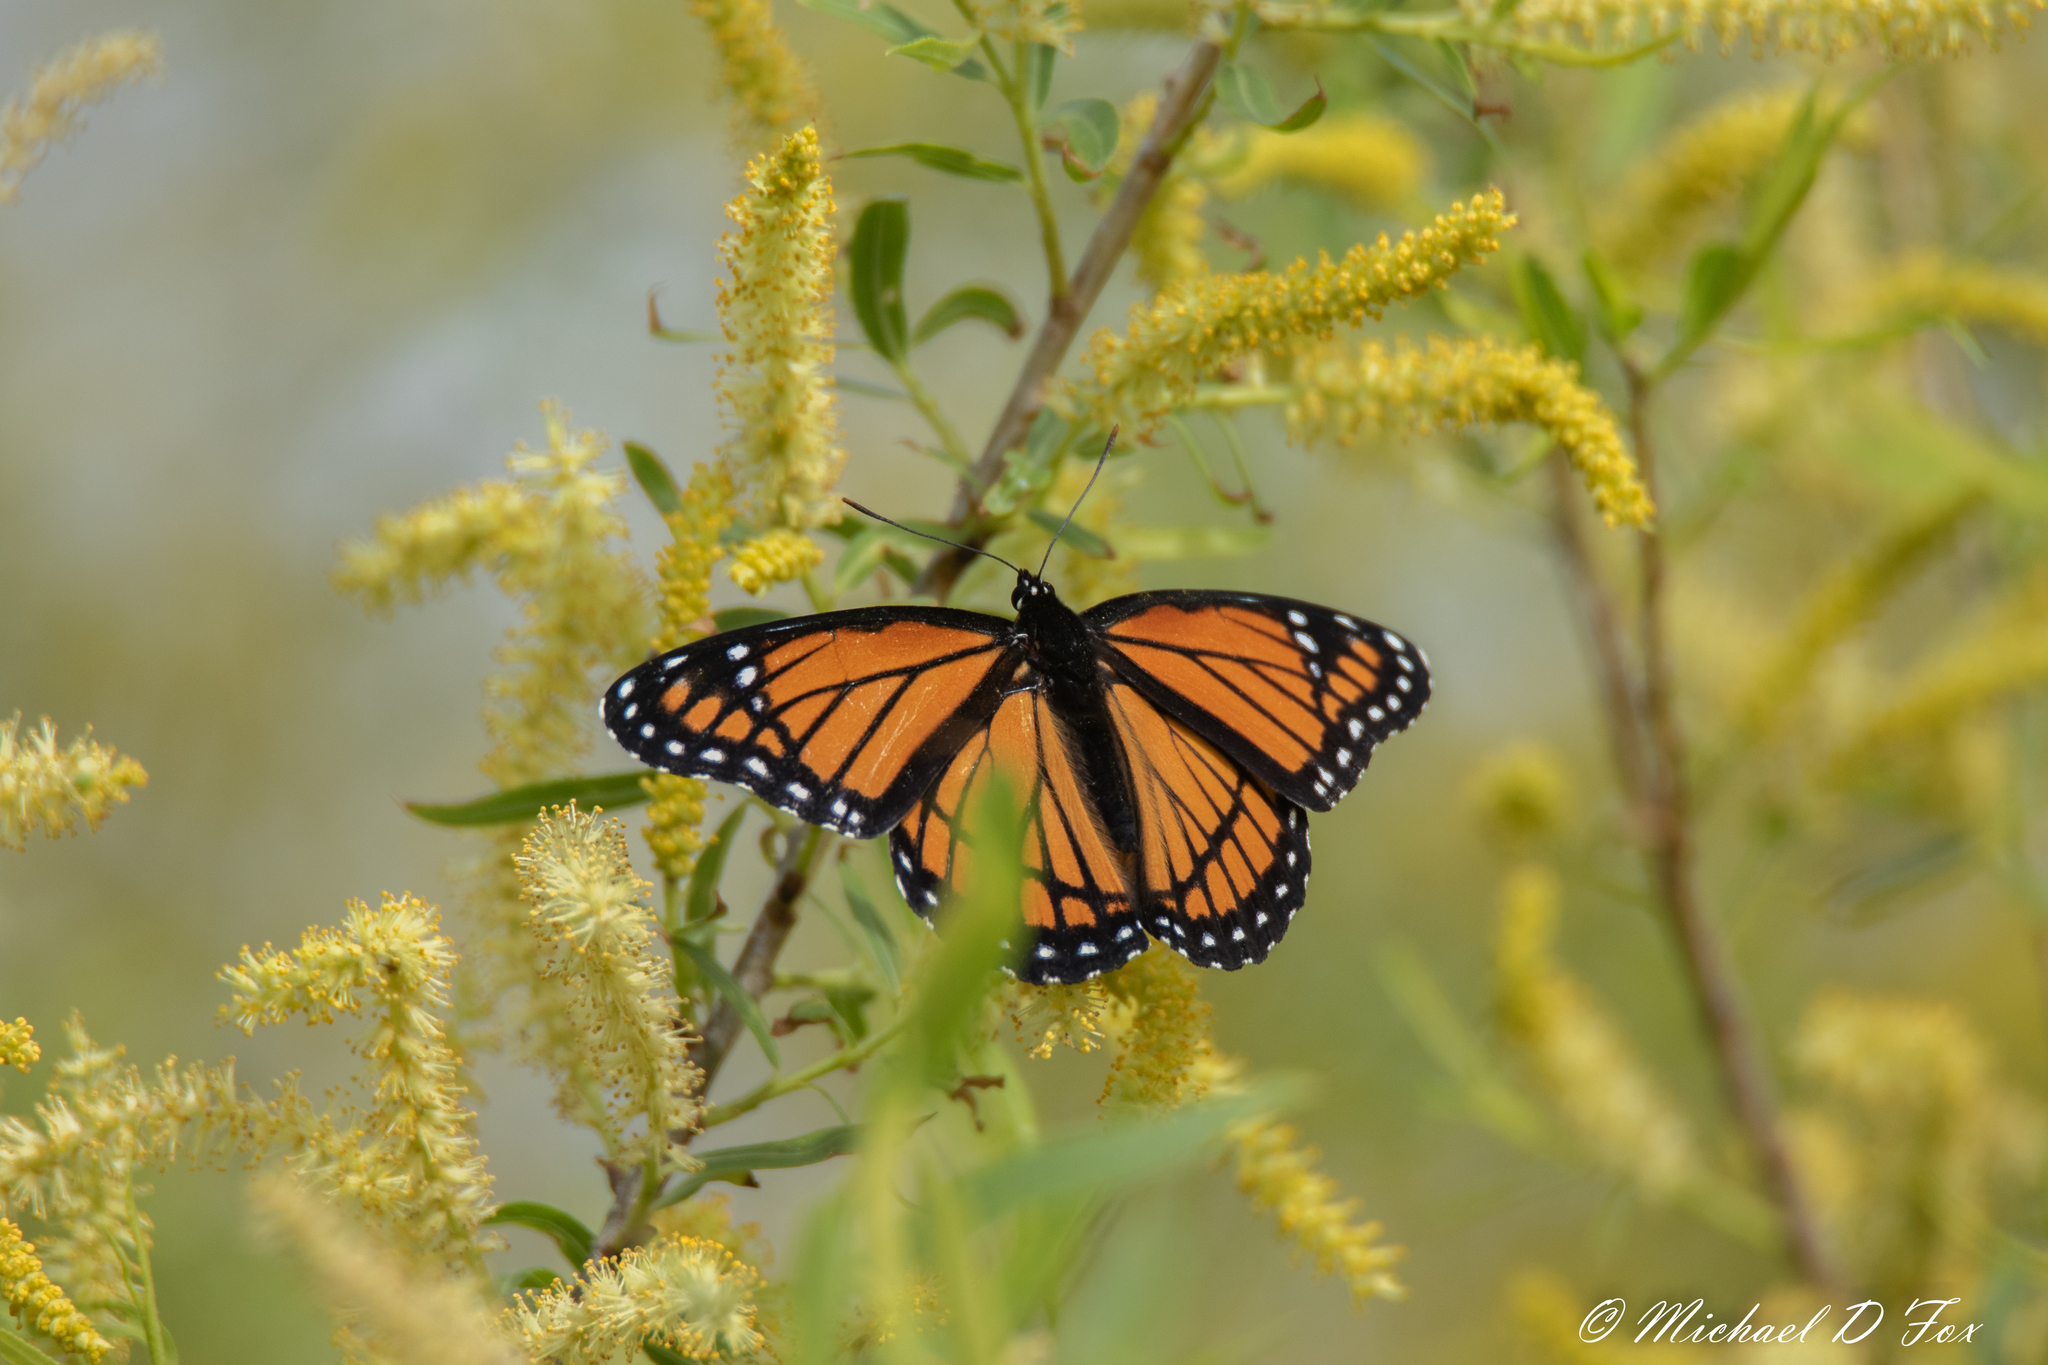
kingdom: Animalia
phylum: Arthropoda
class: Insecta
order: Lepidoptera
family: Nymphalidae
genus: Limenitis
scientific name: Limenitis archippus
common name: Viceroy
